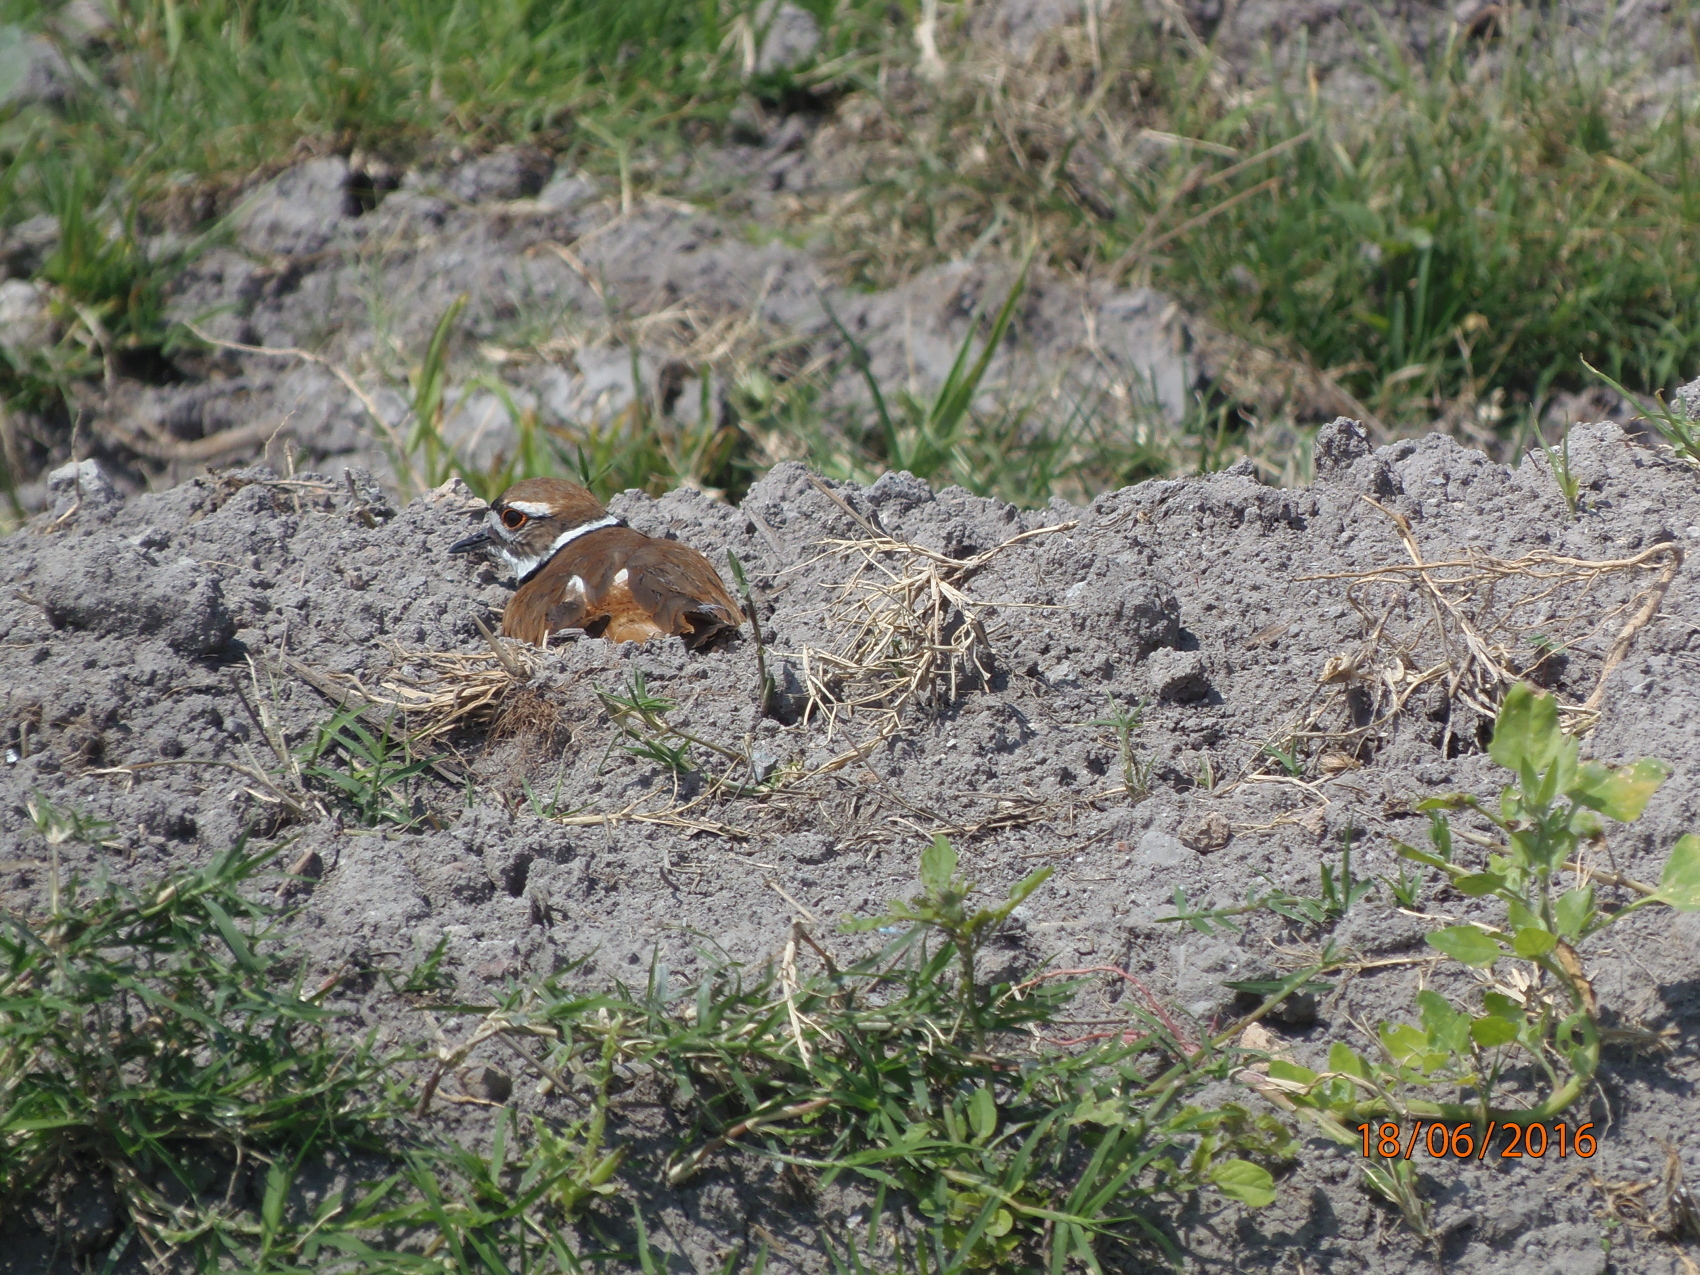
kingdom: Animalia
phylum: Chordata
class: Aves
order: Charadriiformes
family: Charadriidae
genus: Charadrius
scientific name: Charadrius vociferus
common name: Killdeer
